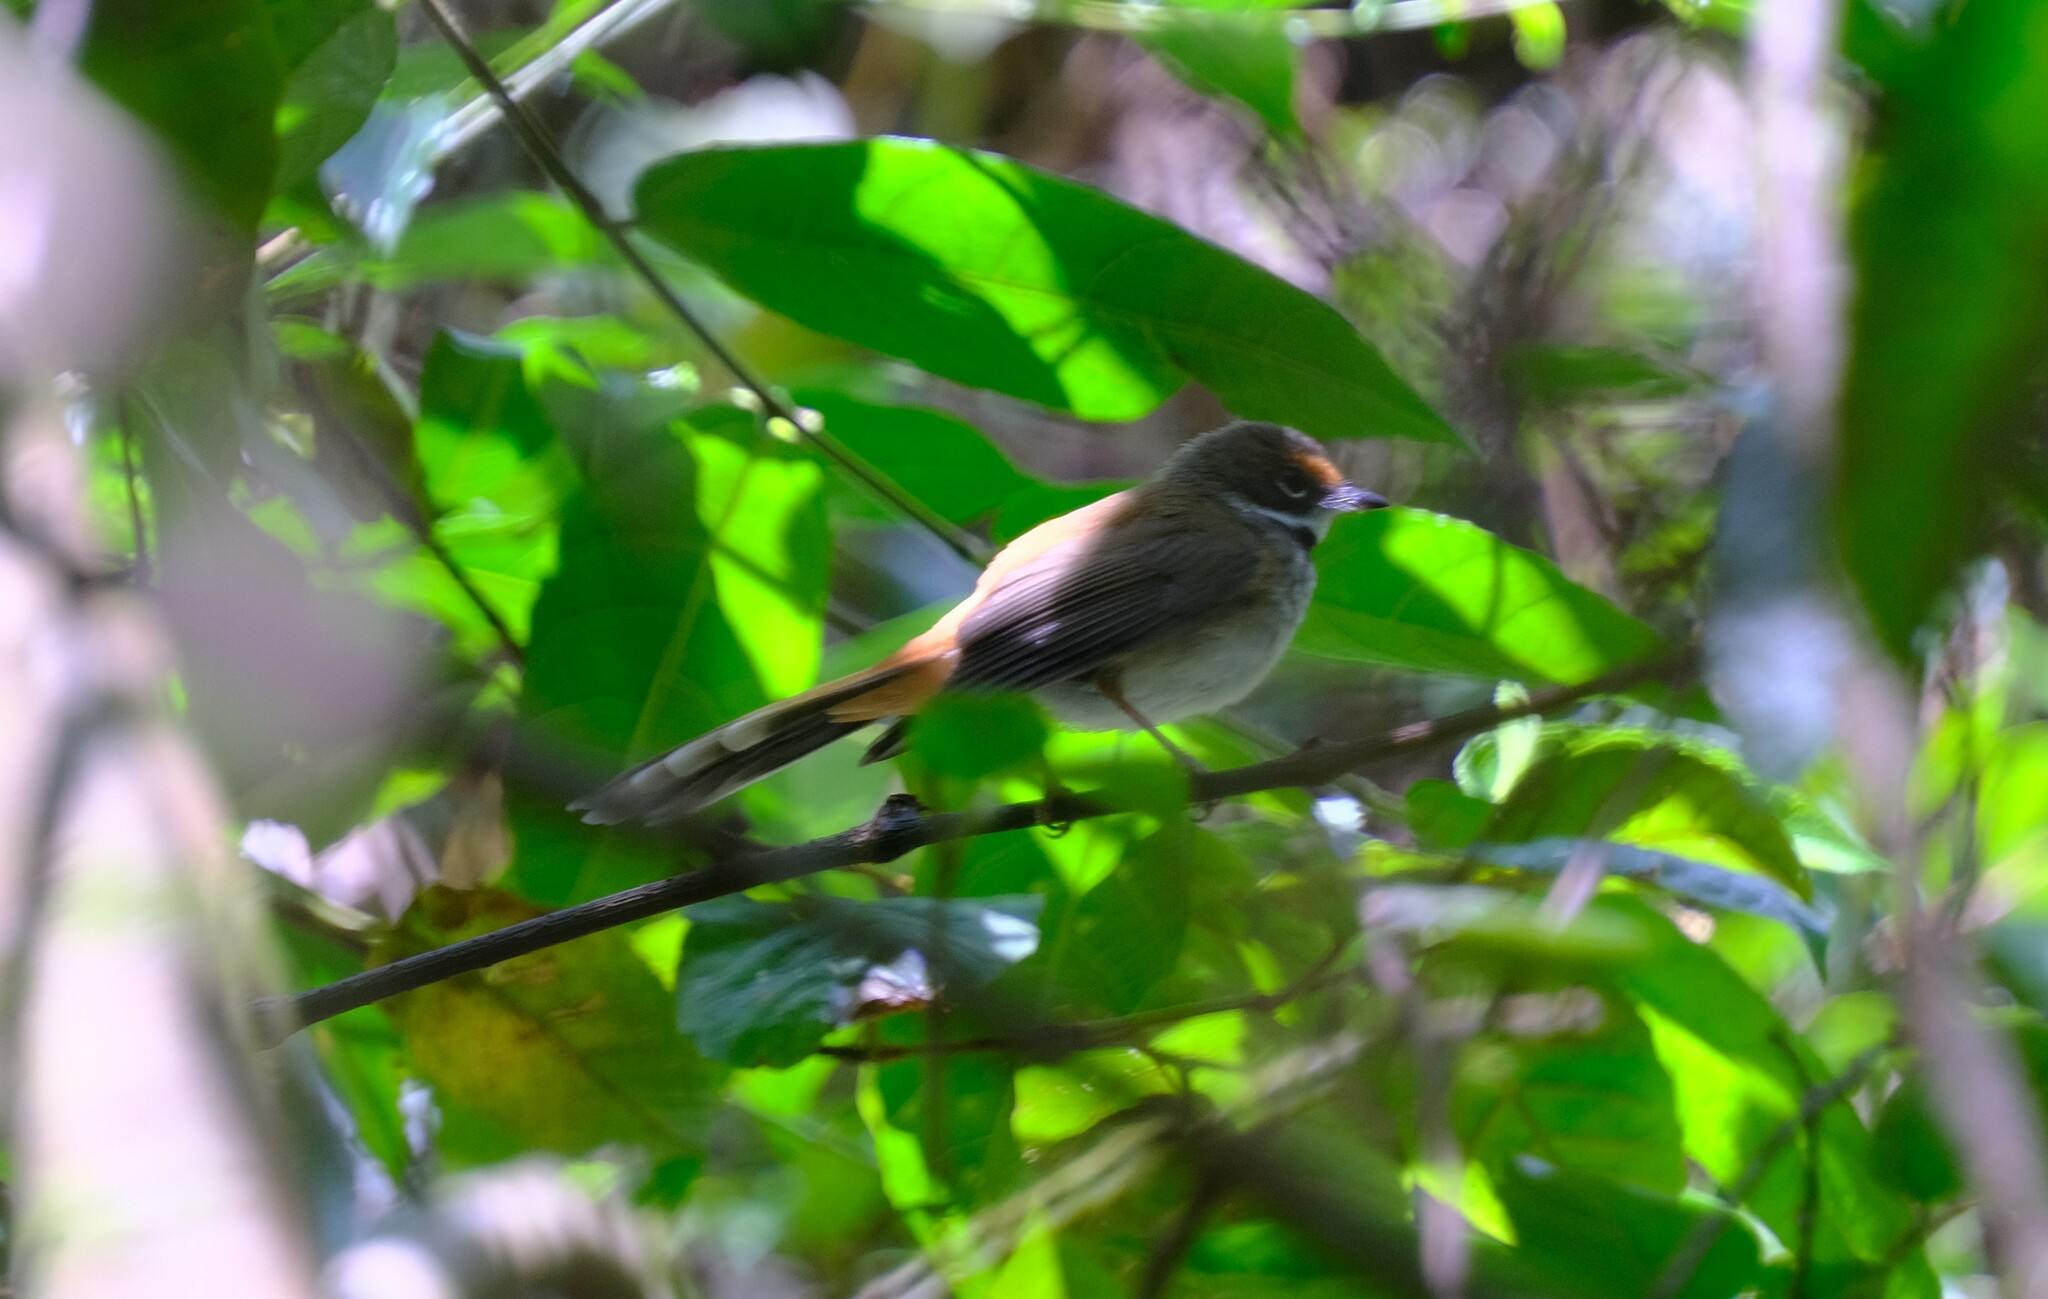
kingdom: Animalia
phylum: Chordata
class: Aves
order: Passeriformes
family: Rhipiduridae
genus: Rhipidura
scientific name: Rhipidura rufifrons
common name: Rufous fantail
